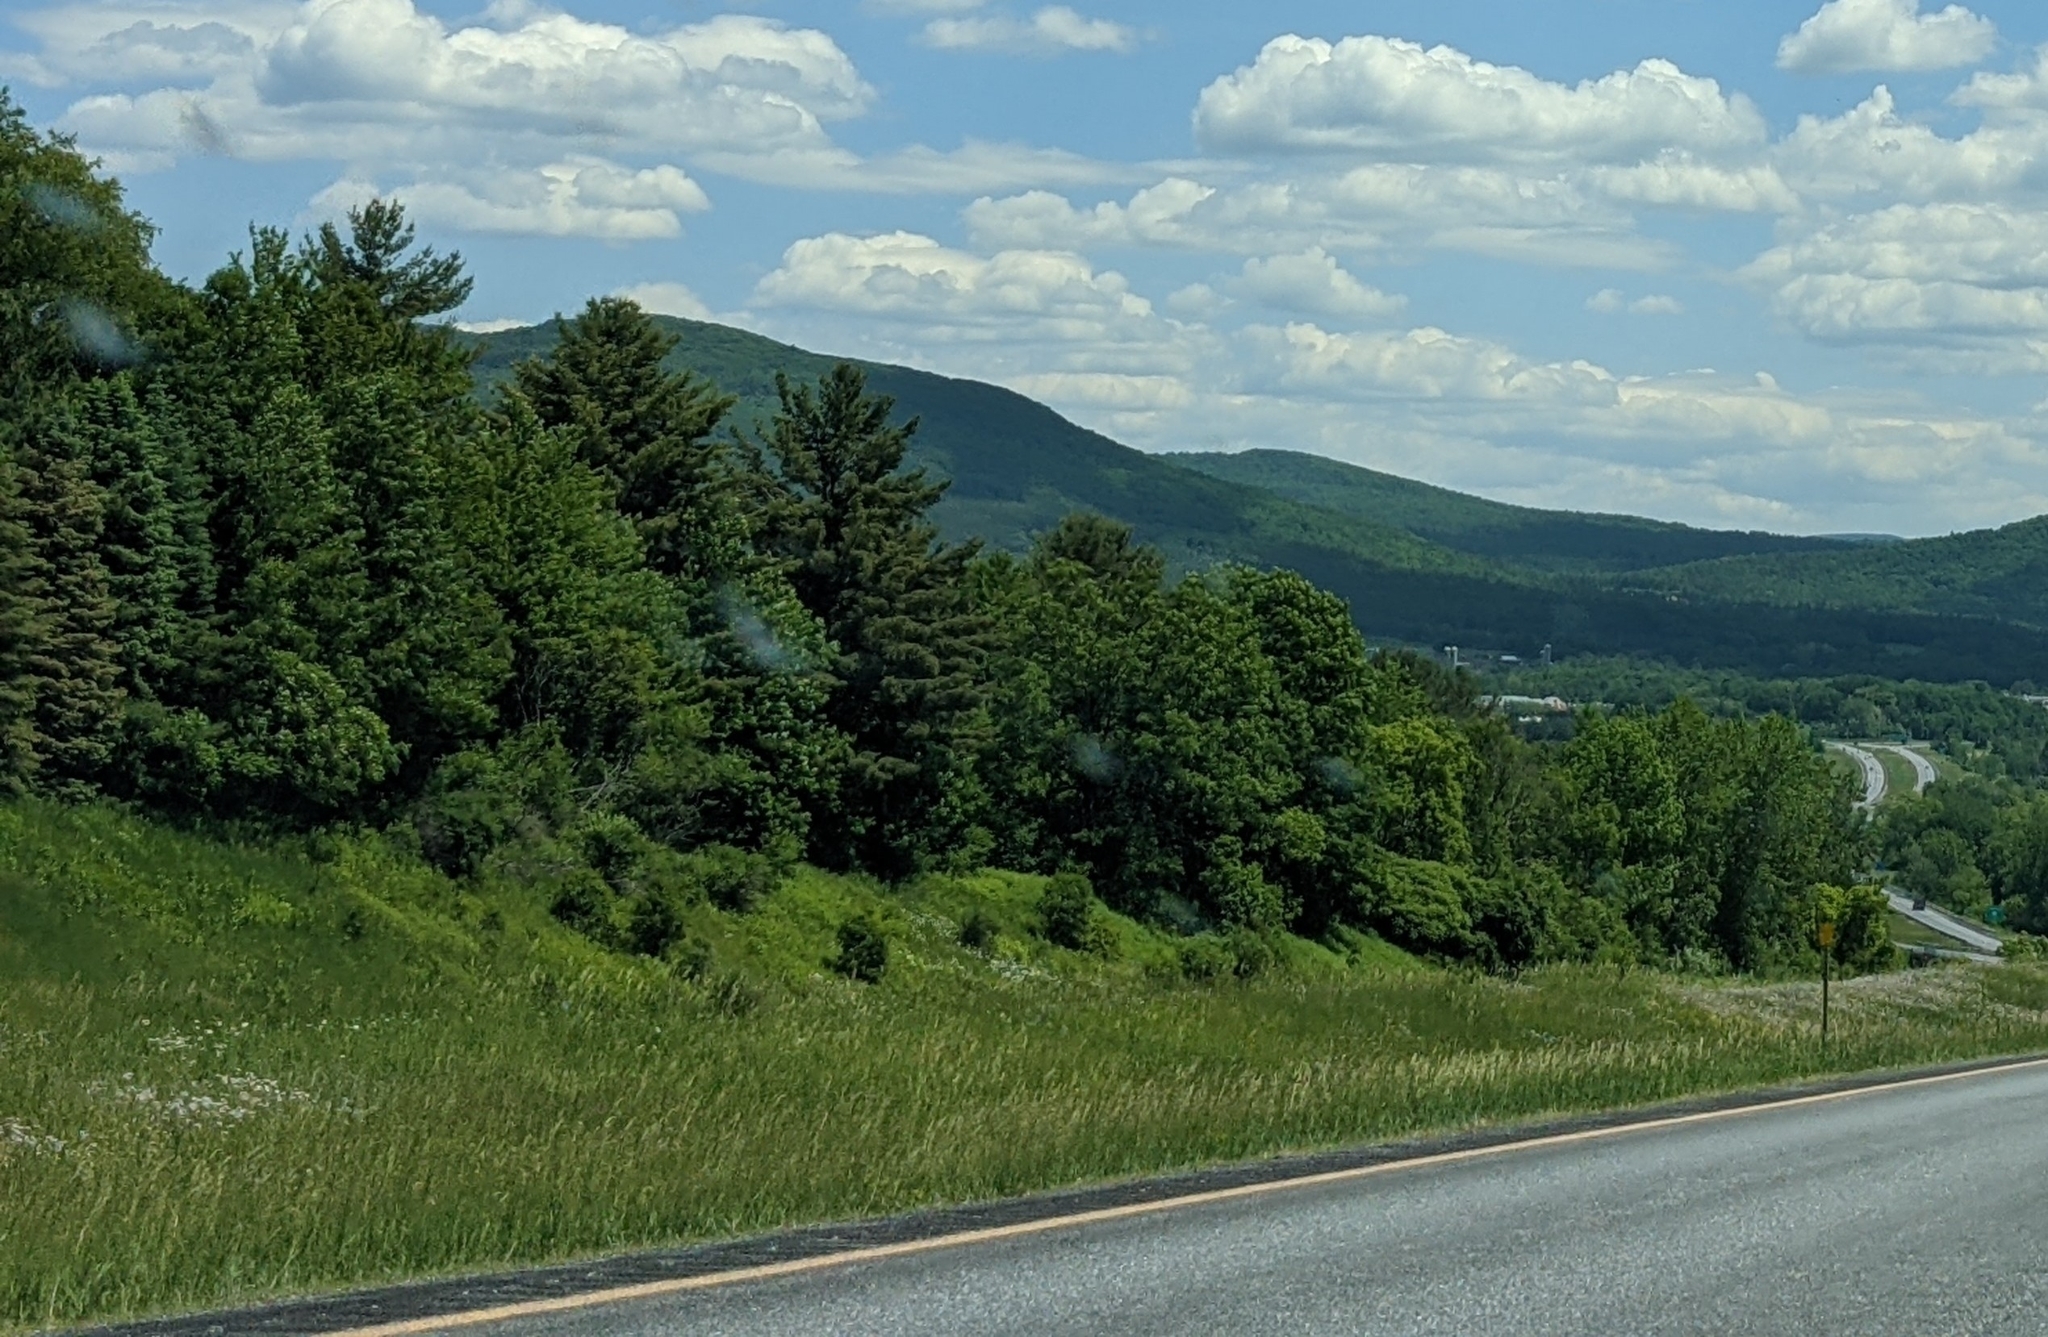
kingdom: Plantae
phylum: Tracheophyta
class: Pinopsida
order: Pinales
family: Pinaceae
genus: Pinus
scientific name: Pinus strobus
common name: Weymouth pine
